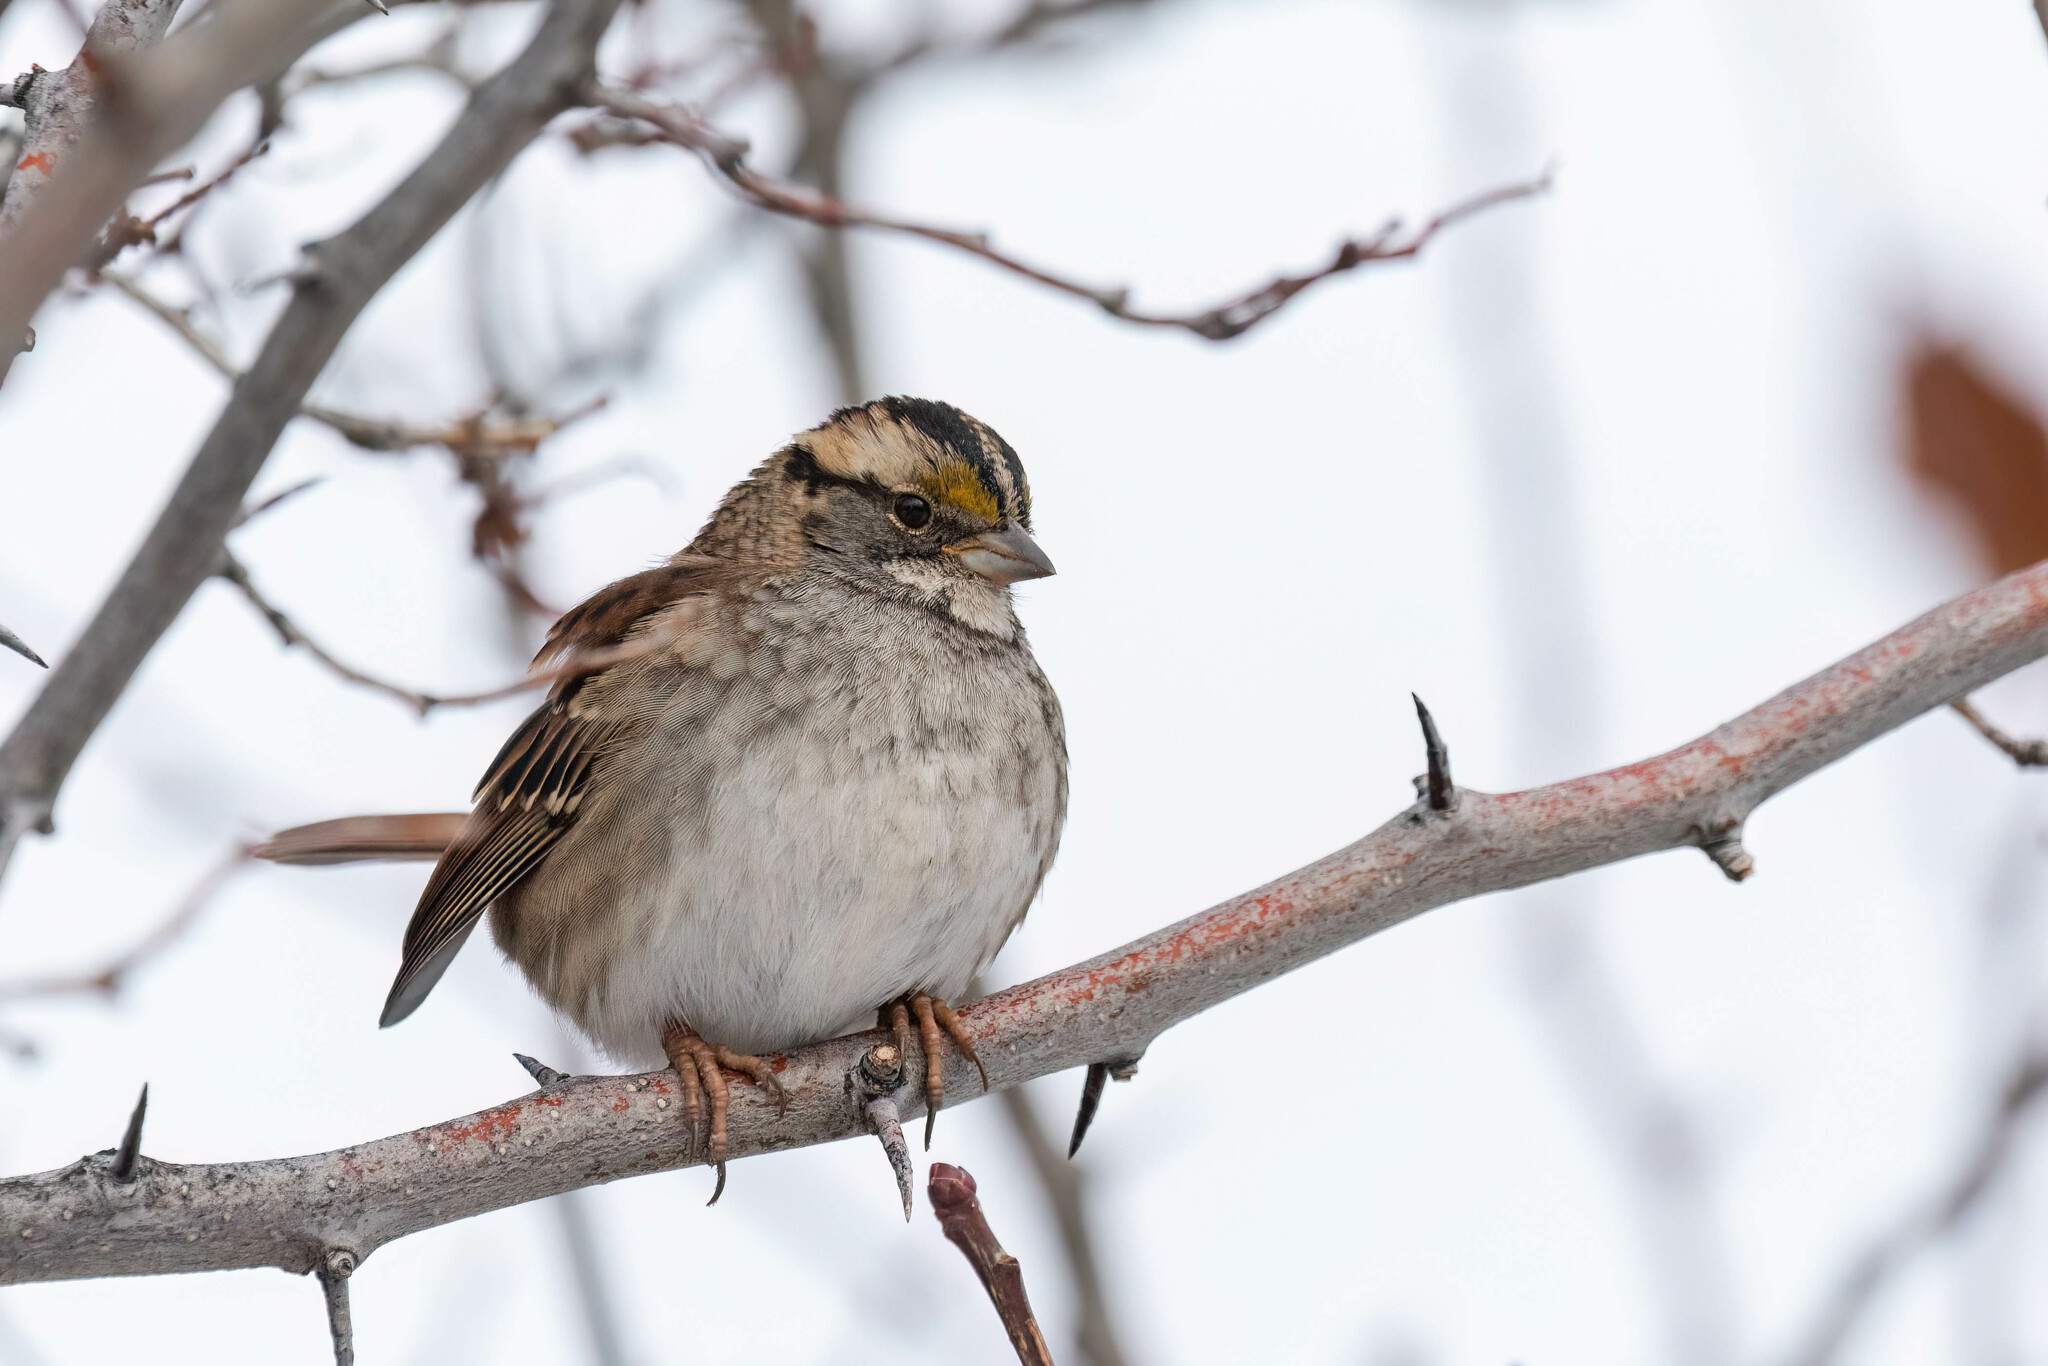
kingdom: Animalia
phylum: Chordata
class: Aves
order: Passeriformes
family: Passerellidae
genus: Zonotrichia
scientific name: Zonotrichia albicollis
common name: White-throated sparrow
